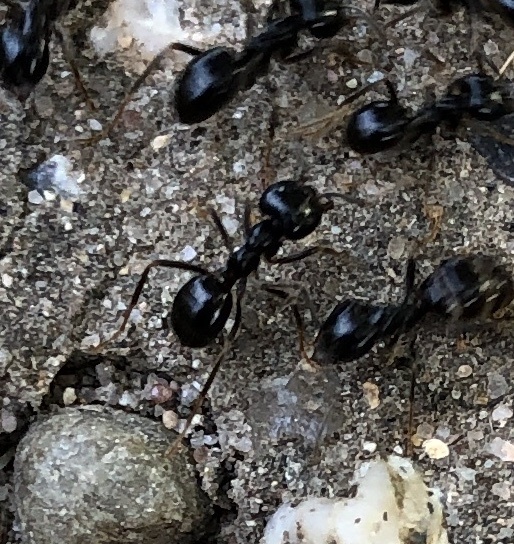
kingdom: Animalia
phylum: Arthropoda
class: Insecta
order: Hymenoptera
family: Formicidae
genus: Lasius
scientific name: Lasius fuliginosus
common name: Jet ant
